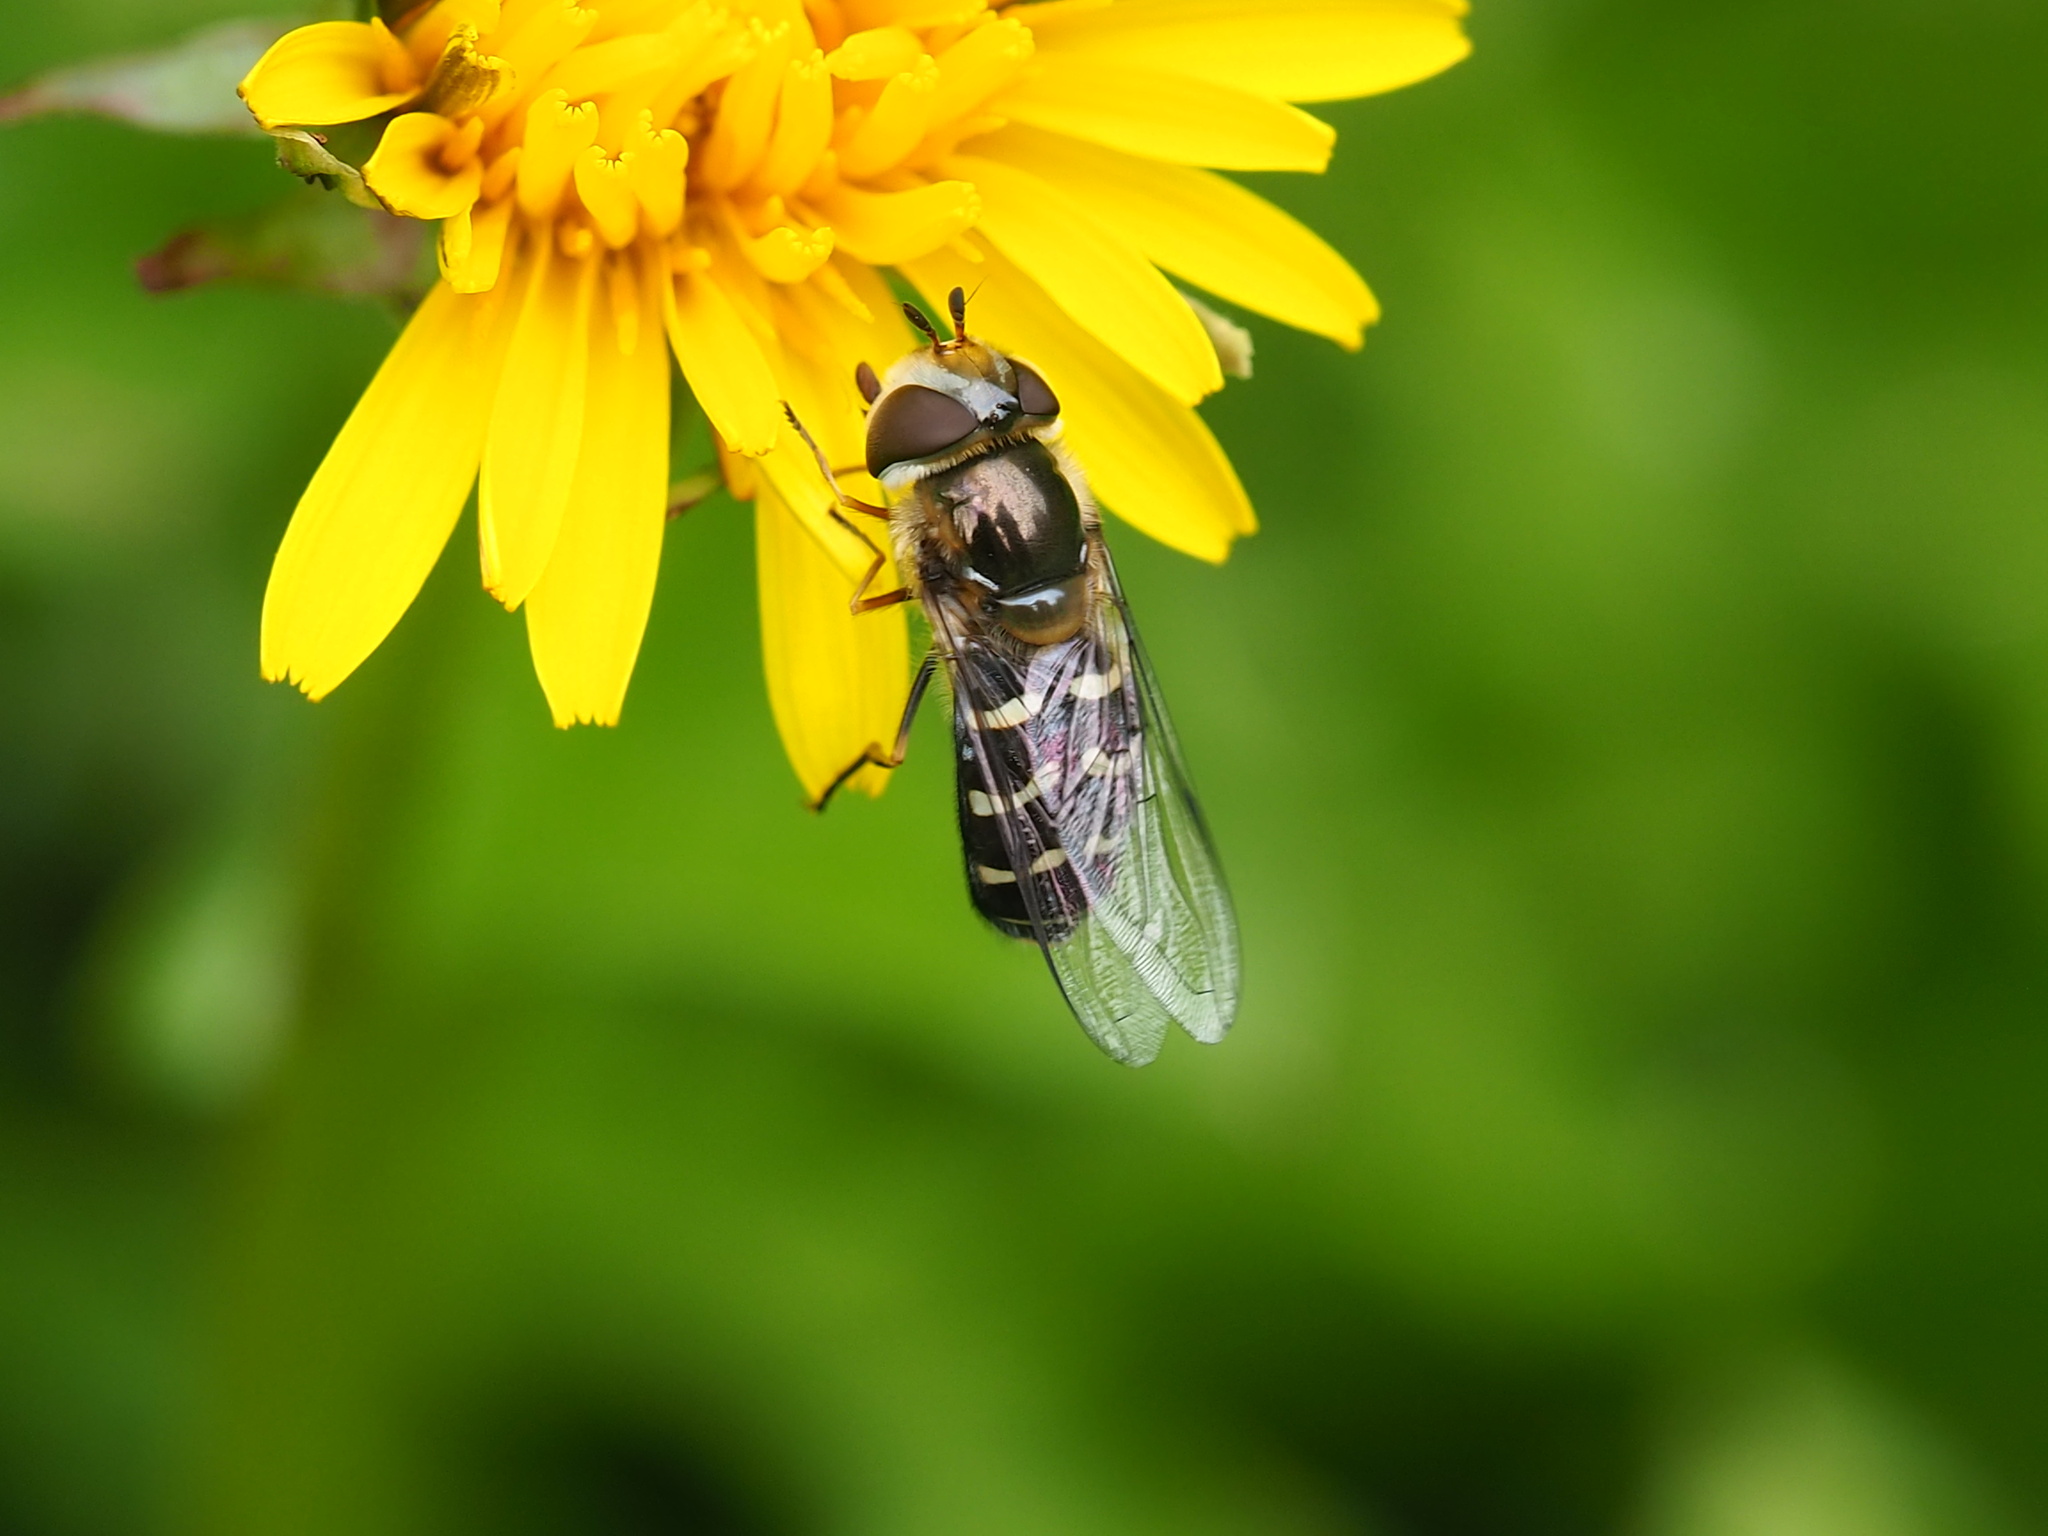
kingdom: Animalia
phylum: Arthropoda
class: Insecta
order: Diptera
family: Syrphidae
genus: Scaeva
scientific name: Scaeva affinis
